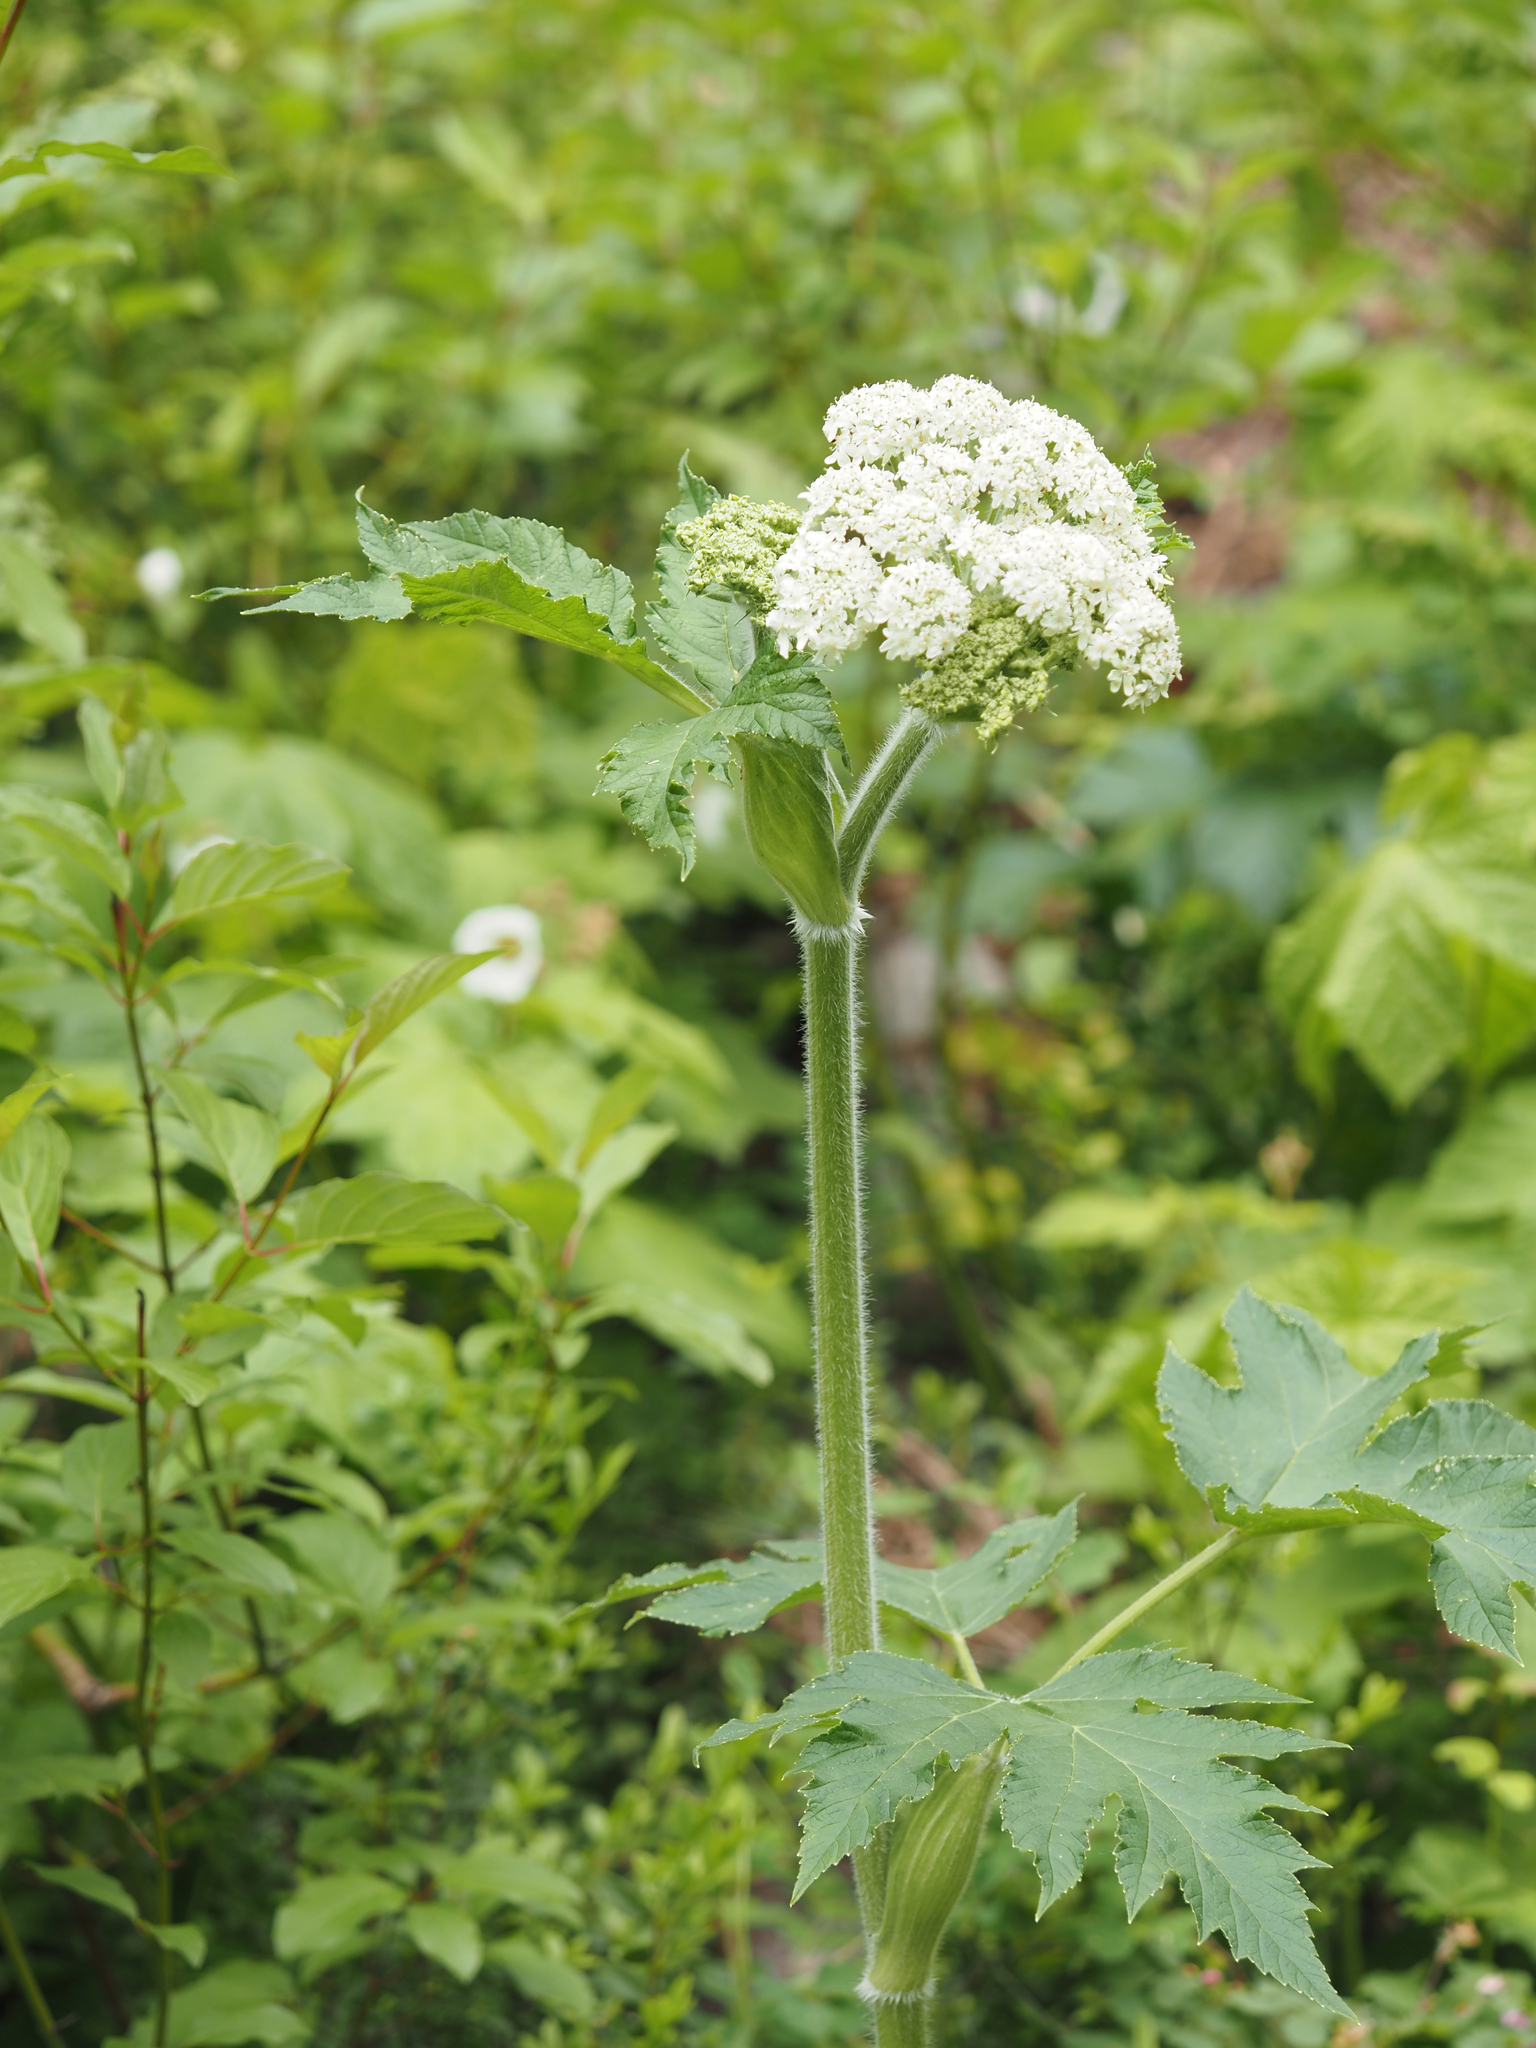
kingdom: Plantae
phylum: Tracheophyta
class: Magnoliopsida
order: Apiales
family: Apiaceae
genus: Heracleum
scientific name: Heracleum maximum
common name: American cow parsnip
